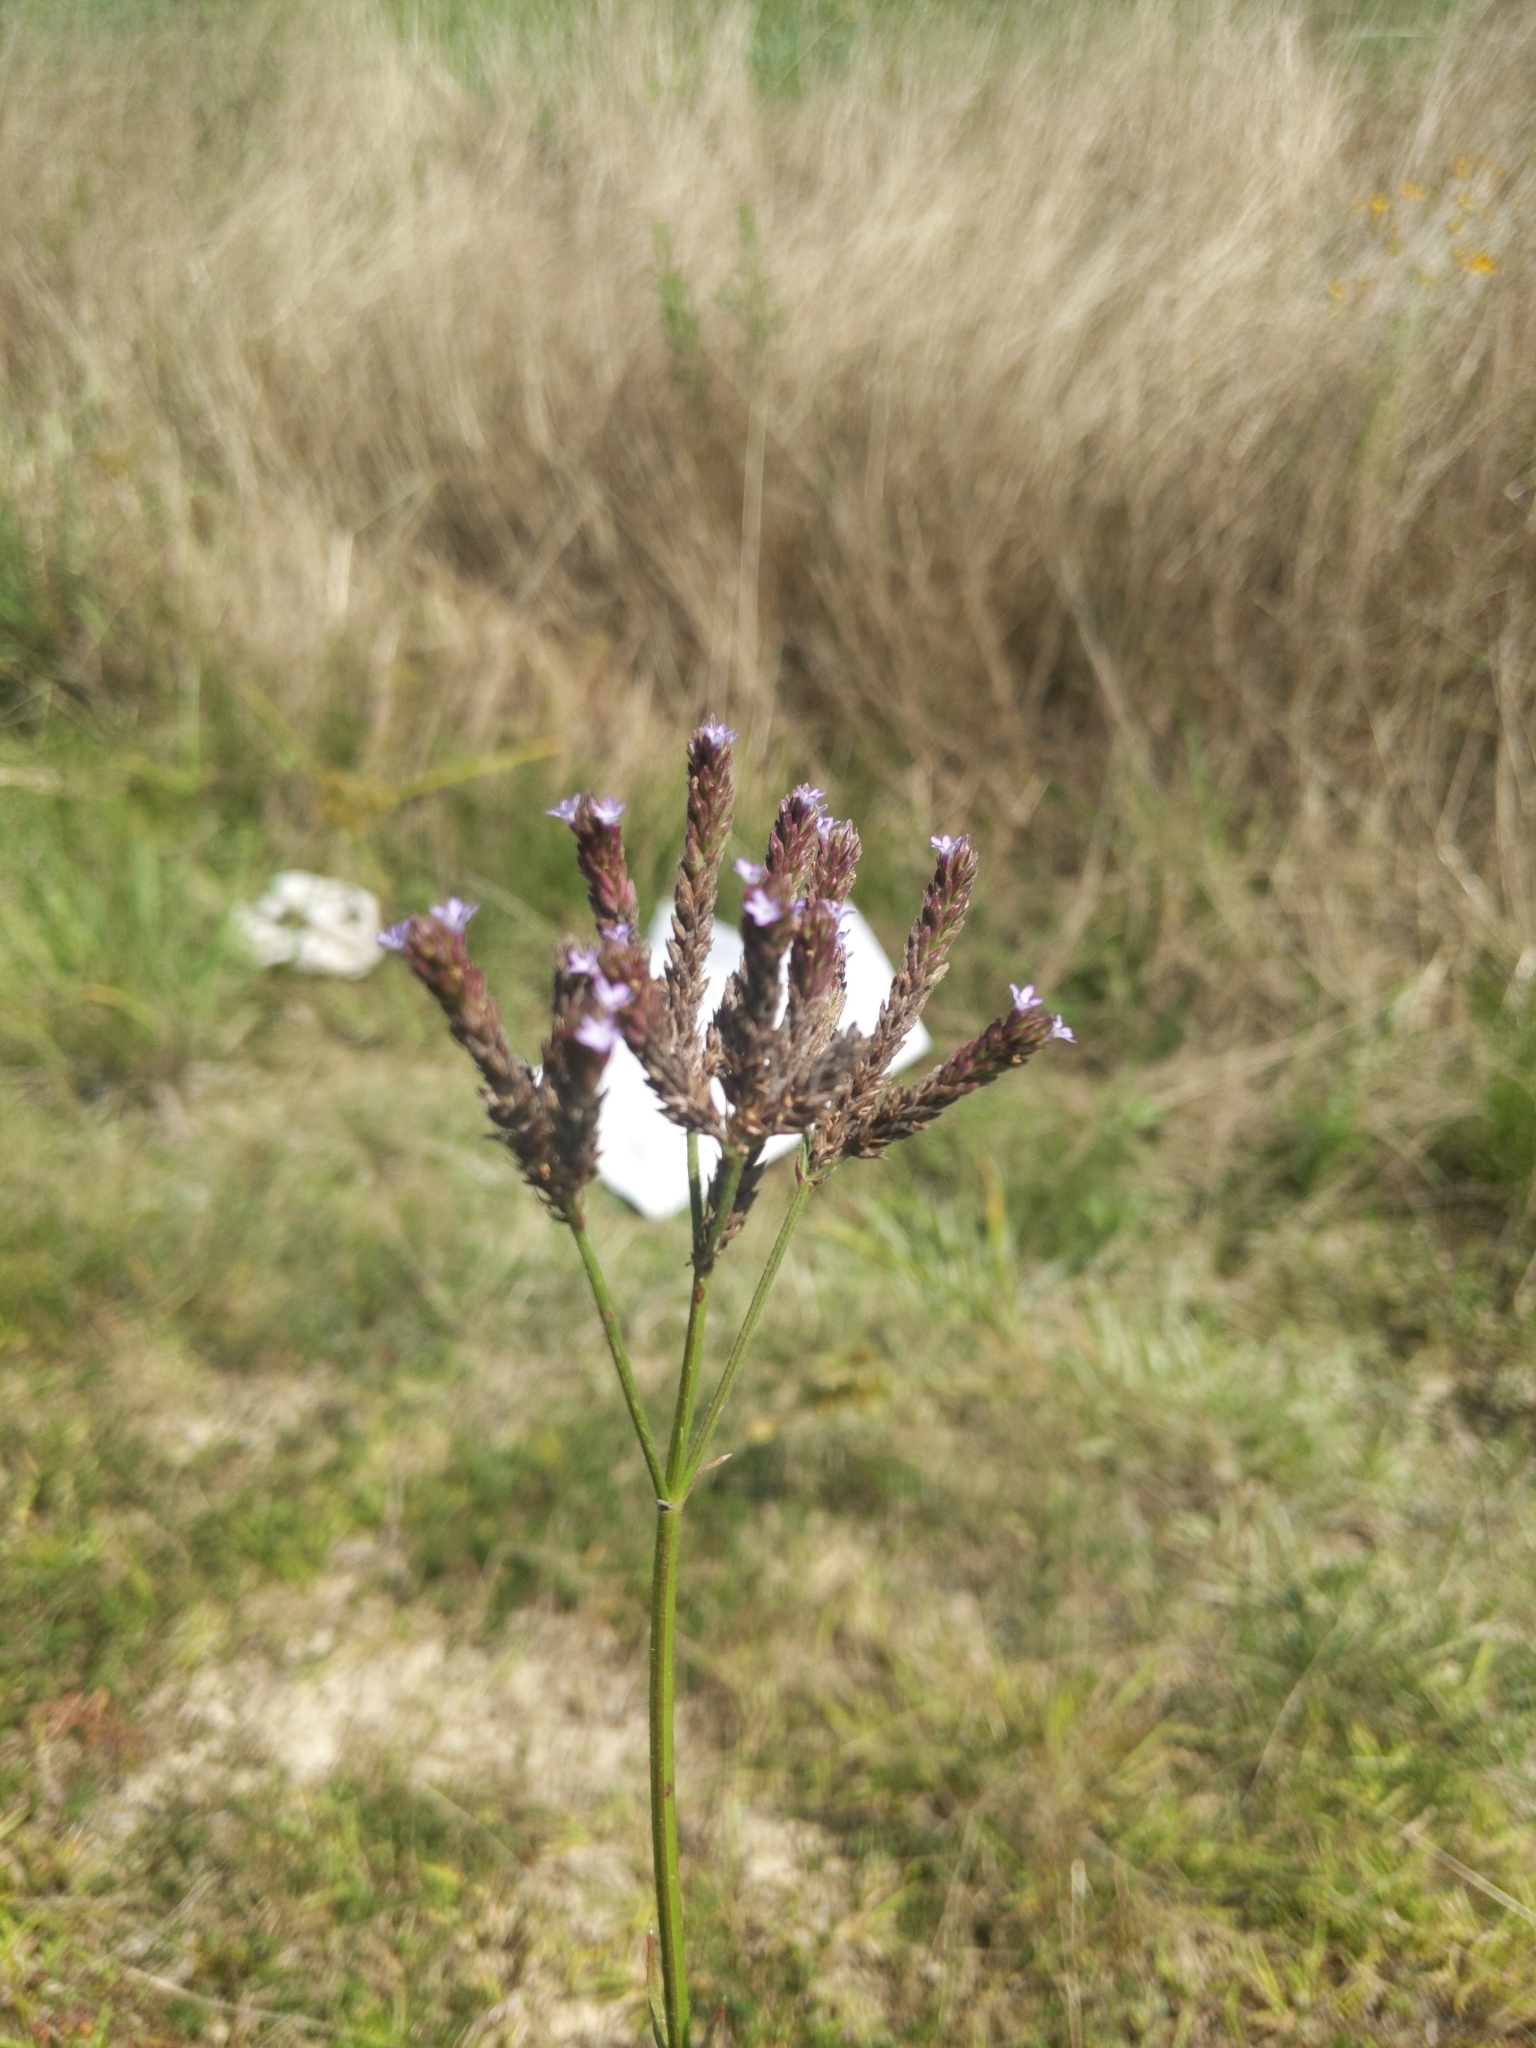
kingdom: Plantae
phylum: Tracheophyta
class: Magnoliopsida
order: Lamiales
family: Verbenaceae
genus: Verbena
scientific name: Verbena brasiliensis
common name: Brazilian vervain
